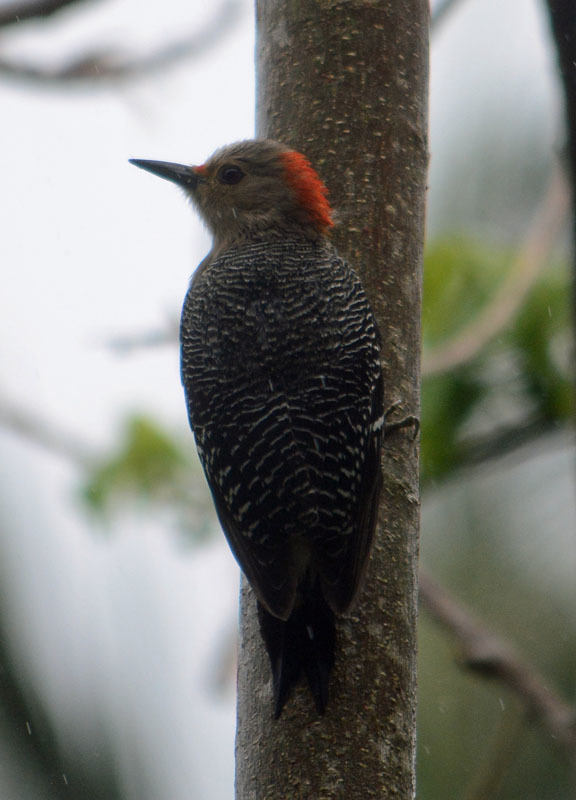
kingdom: Animalia
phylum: Chordata
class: Aves
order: Piciformes
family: Picidae
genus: Melanerpes
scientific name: Melanerpes aurifrons
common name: Golden-fronted woodpecker
